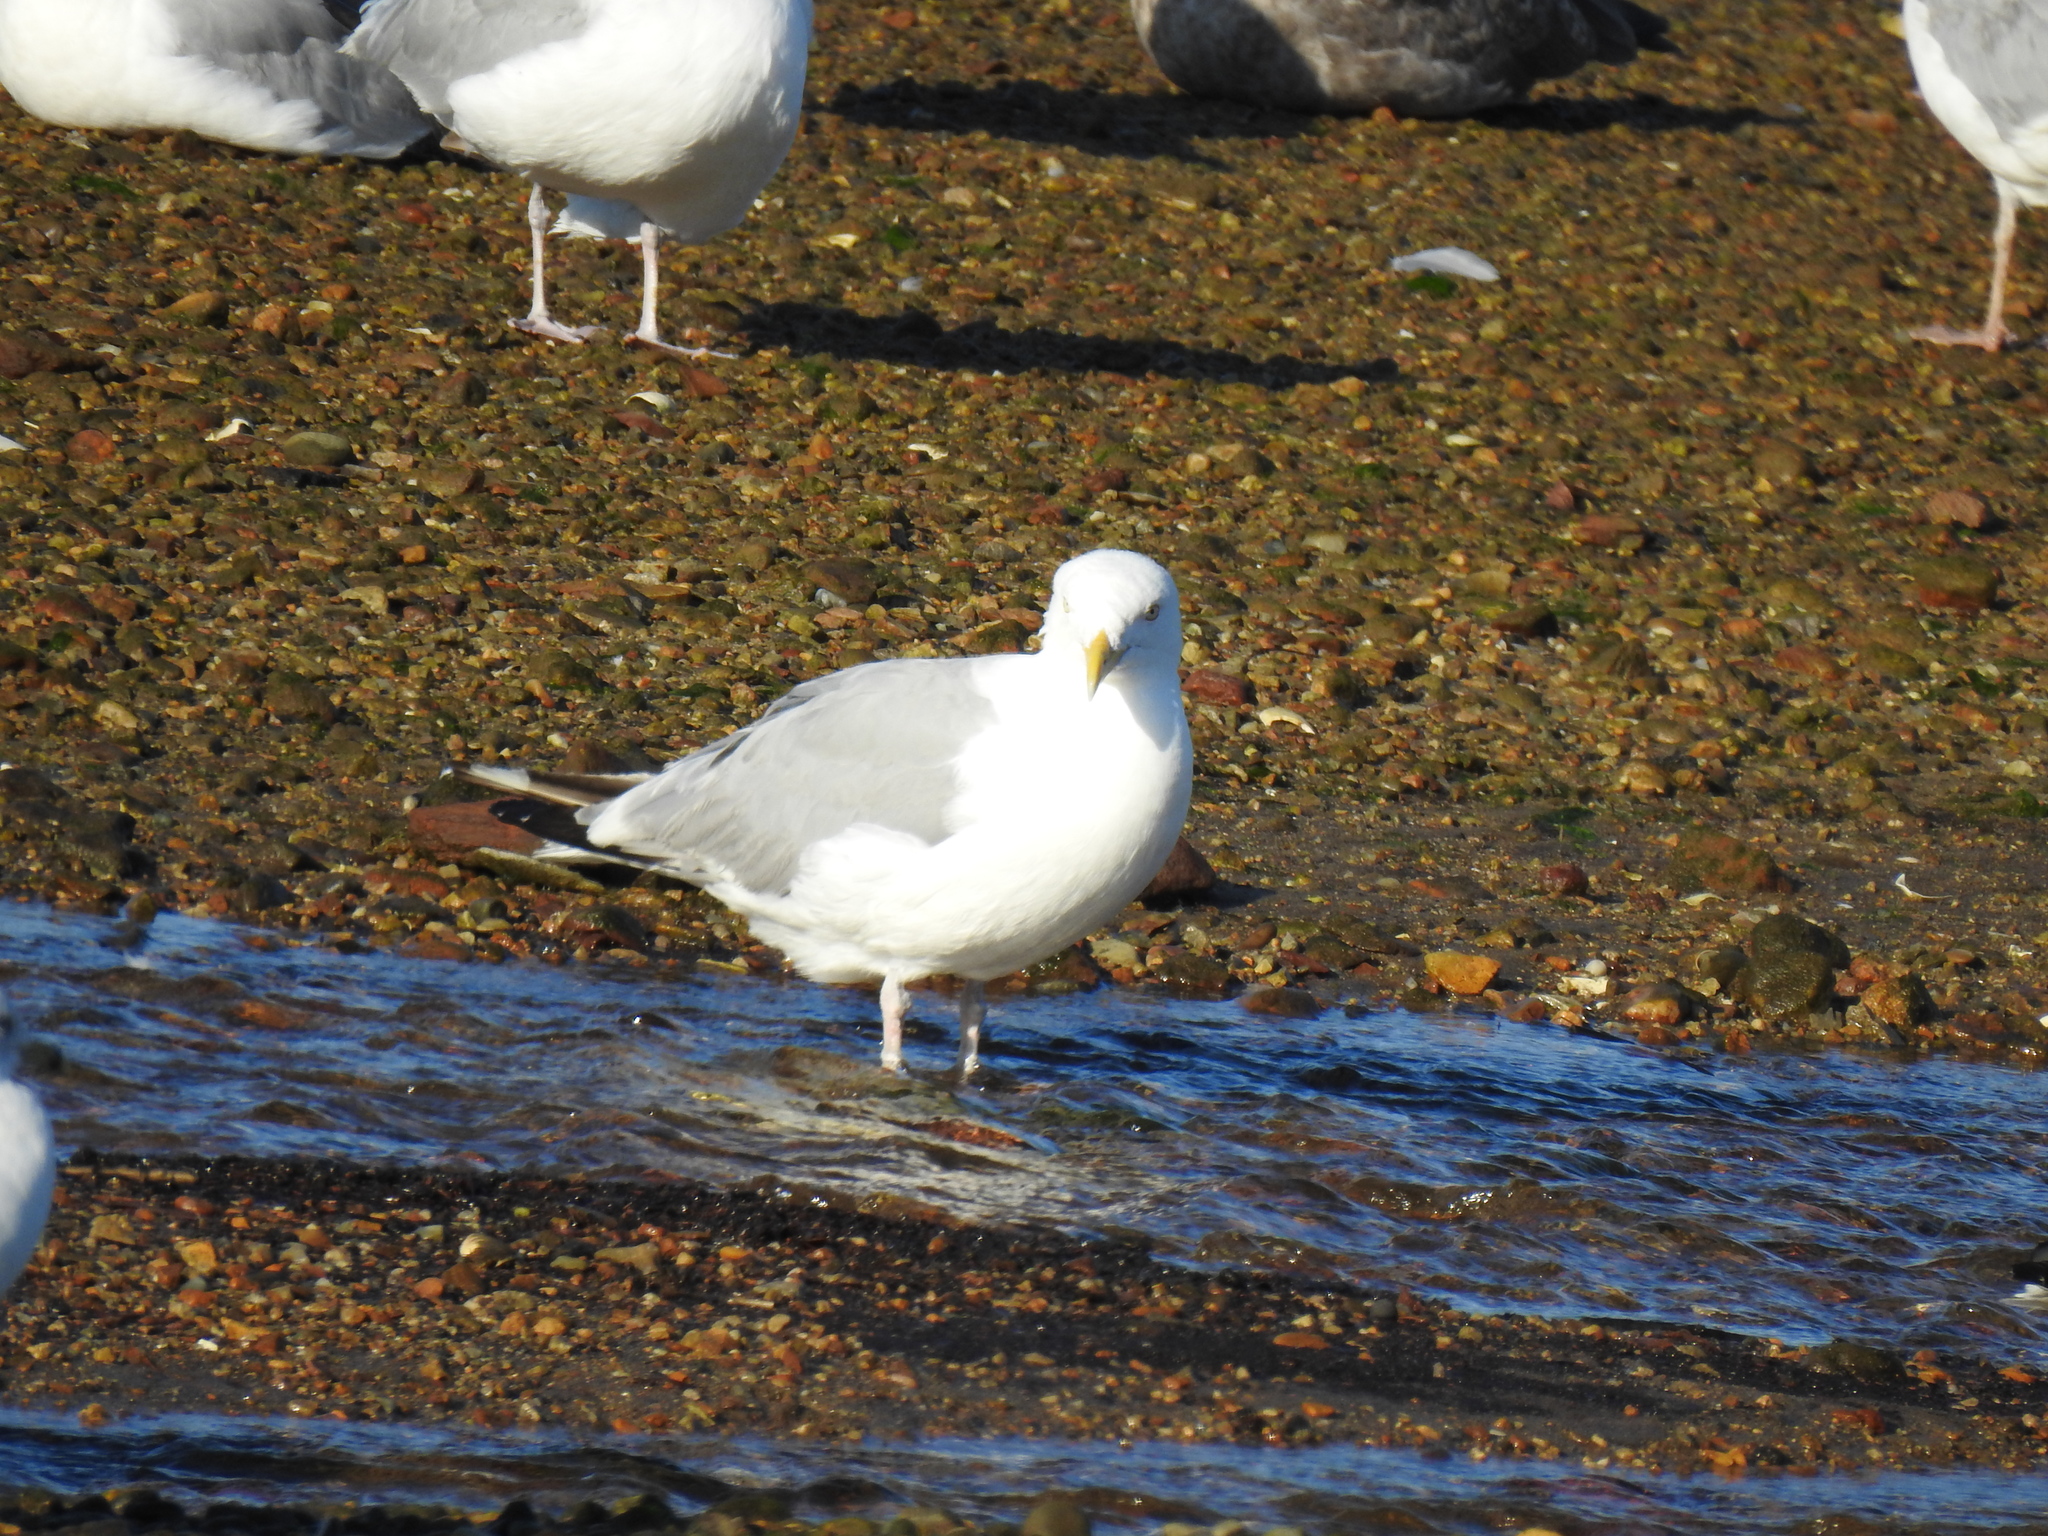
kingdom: Animalia
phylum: Chordata
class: Aves
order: Charadriiformes
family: Laridae
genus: Larus
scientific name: Larus argentatus
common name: Herring gull
